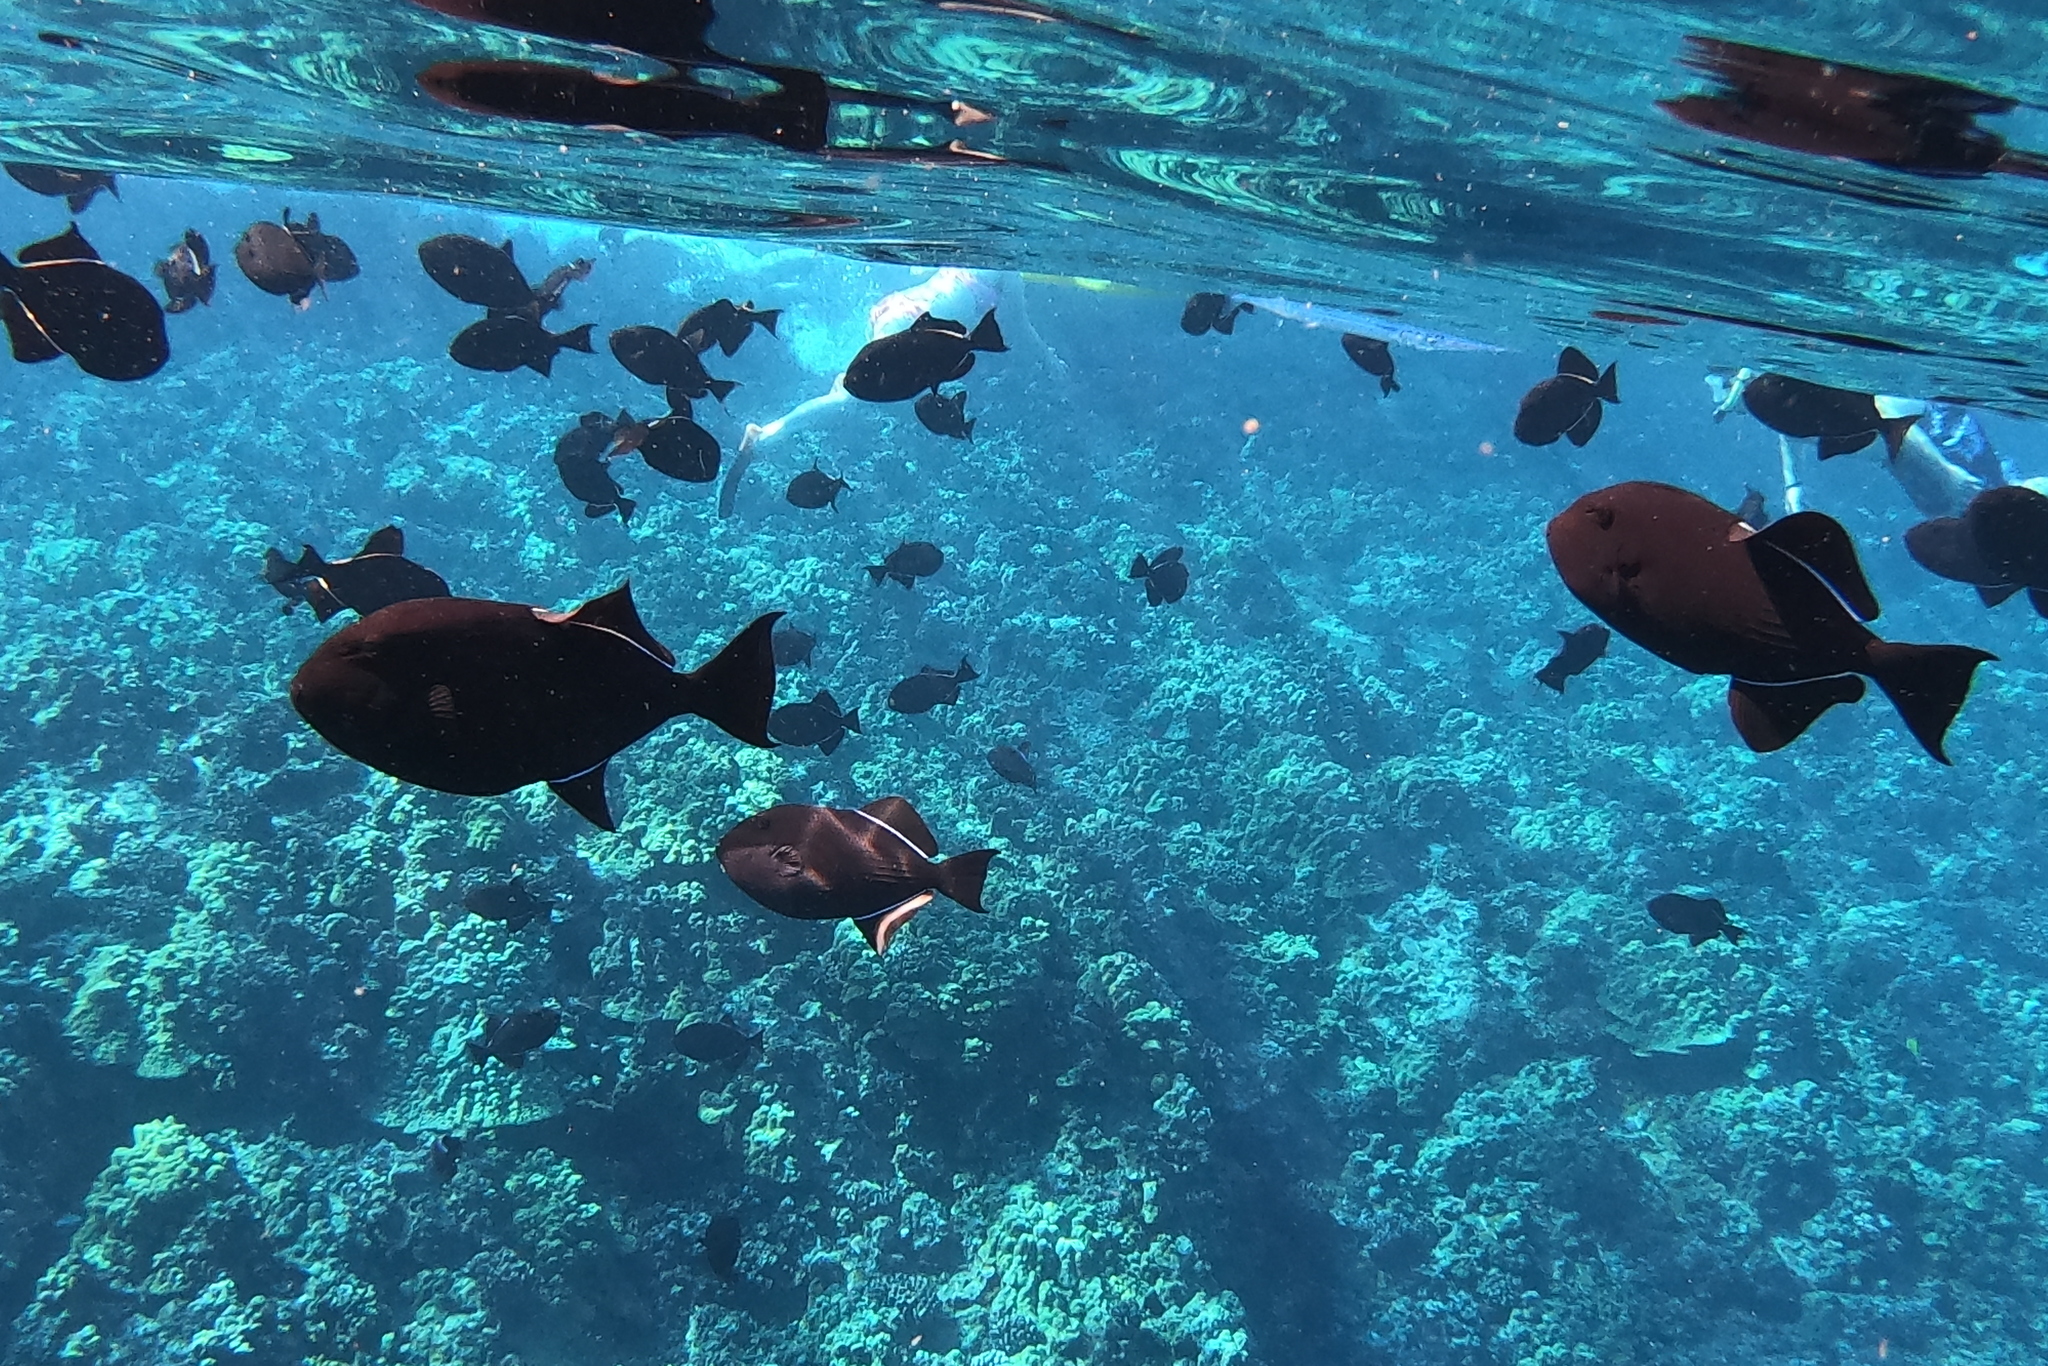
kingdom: Animalia
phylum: Chordata
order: Tetraodontiformes
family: Balistidae
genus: Melichthys
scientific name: Melichthys niger
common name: Black durgon
